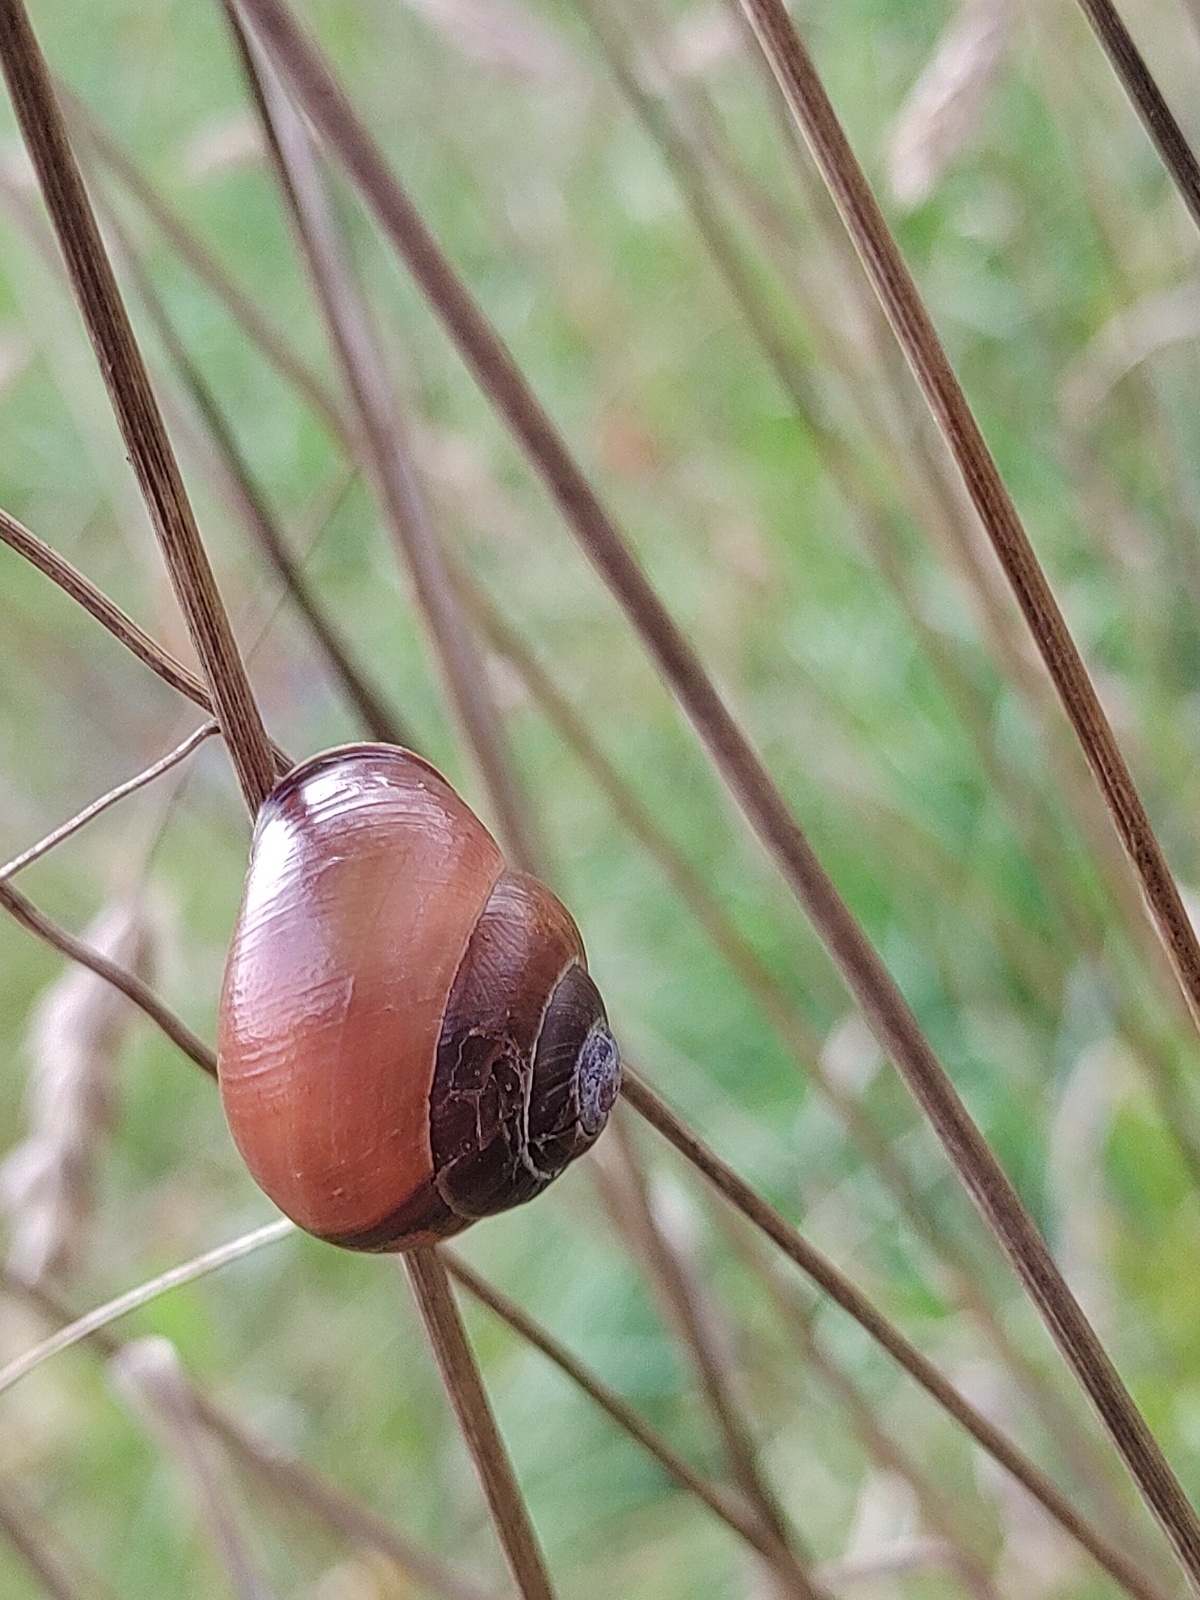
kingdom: Animalia
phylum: Mollusca
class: Gastropoda
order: Stylommatophora
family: Helicidae
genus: Cepaea
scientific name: Cepaea nemoralis
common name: Grovesnail
